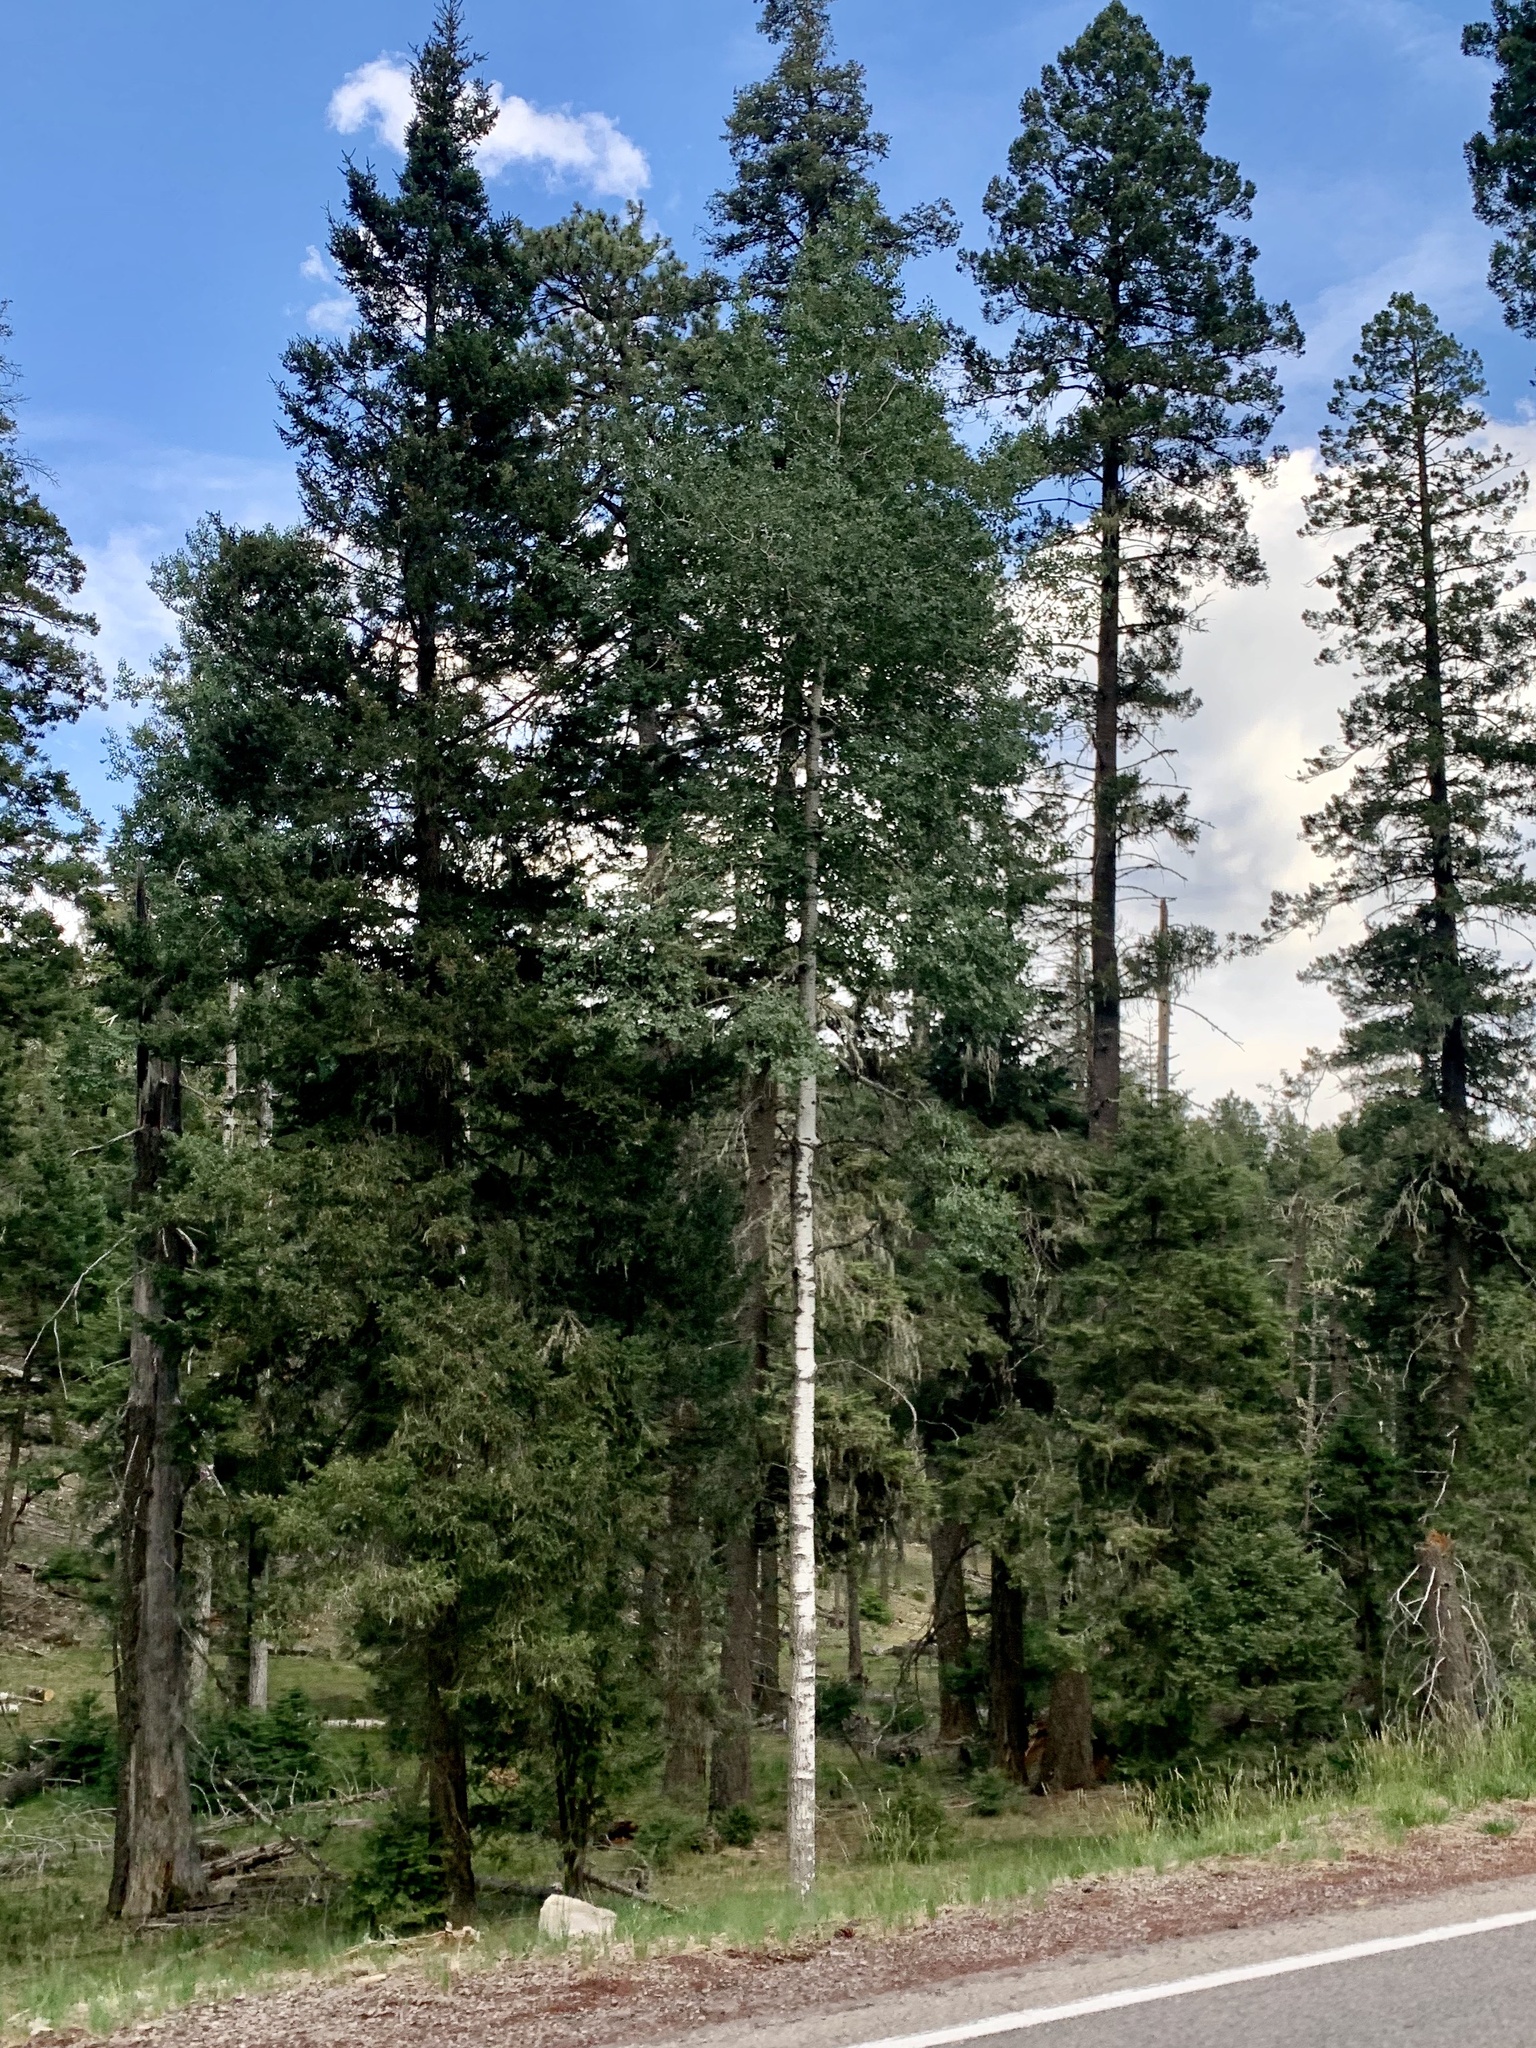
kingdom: Plantae
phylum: Tracheophyta
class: Magnoliopsida
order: Malpighiales
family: Salicaceae
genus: Populus
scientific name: Populus tremuloides
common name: Quaking aspen
